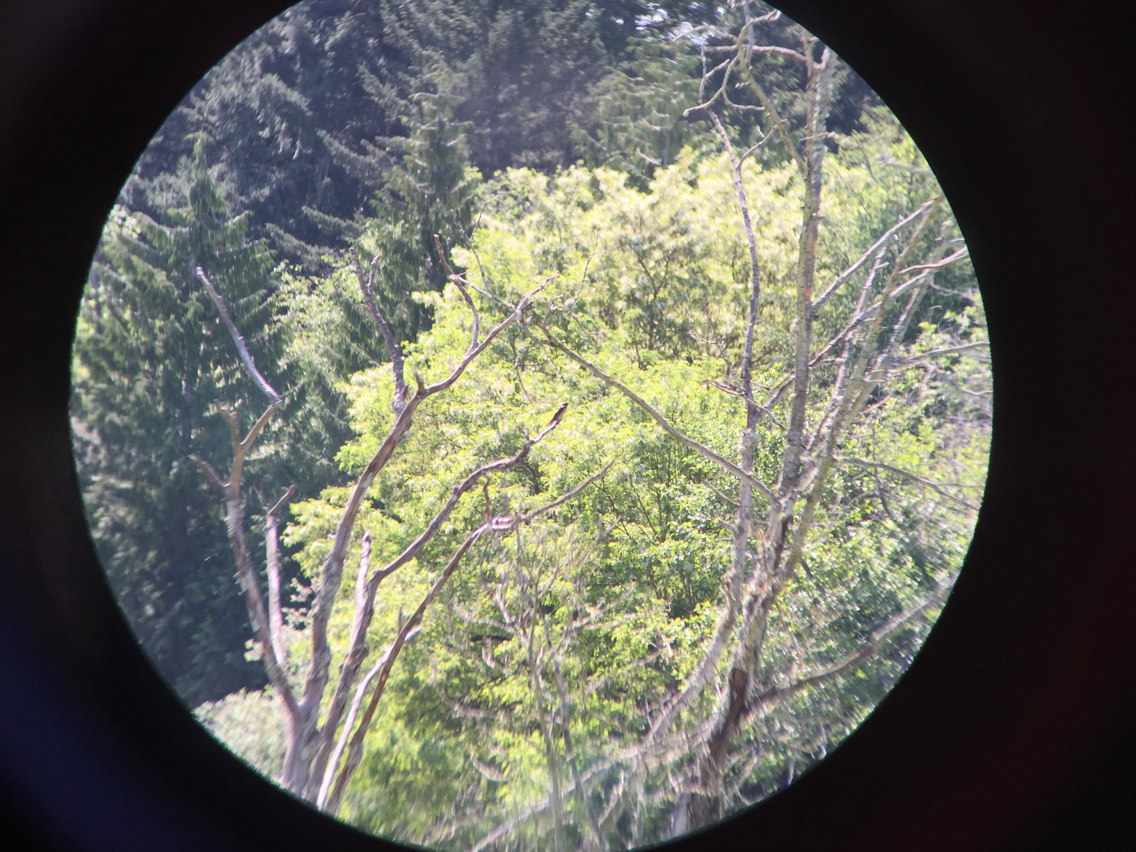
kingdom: Animalia
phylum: Chordata
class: Aves
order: Passeriformes
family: Hirundinidae
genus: Hirundo
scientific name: Hirundo rustica
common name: Barn swallow
